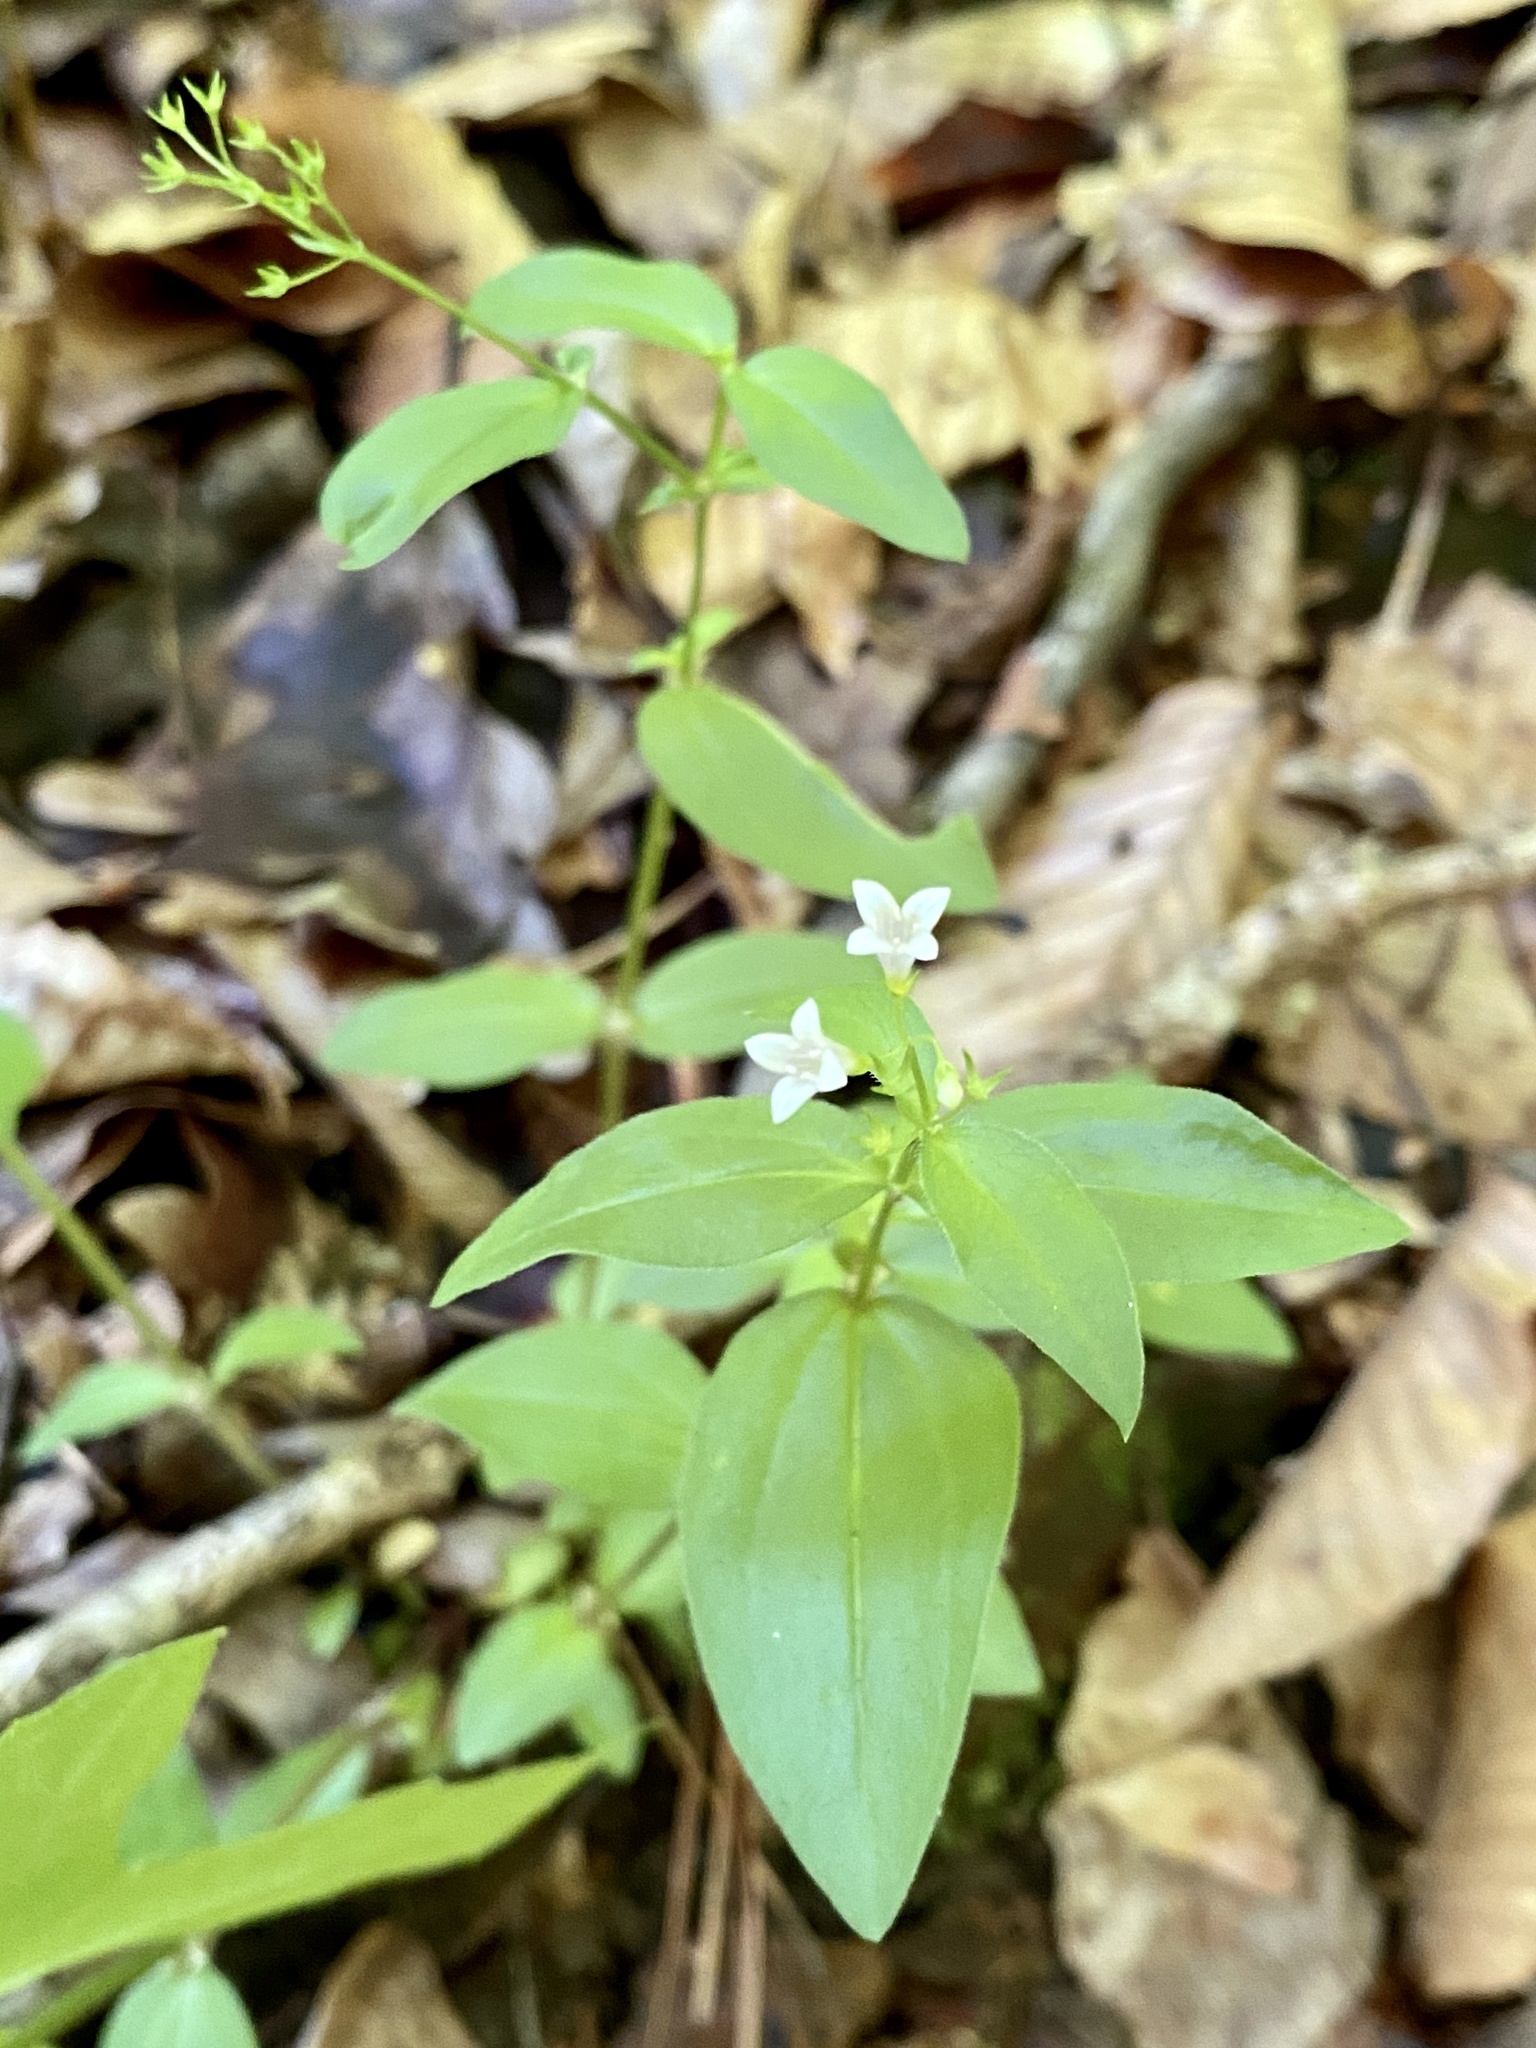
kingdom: Plantae
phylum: Tracheophyta
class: Magnoliopsida
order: Gentianales
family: Rubiaceae
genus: Houstonia
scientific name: Houstonia purpurea
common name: Summer bluet
